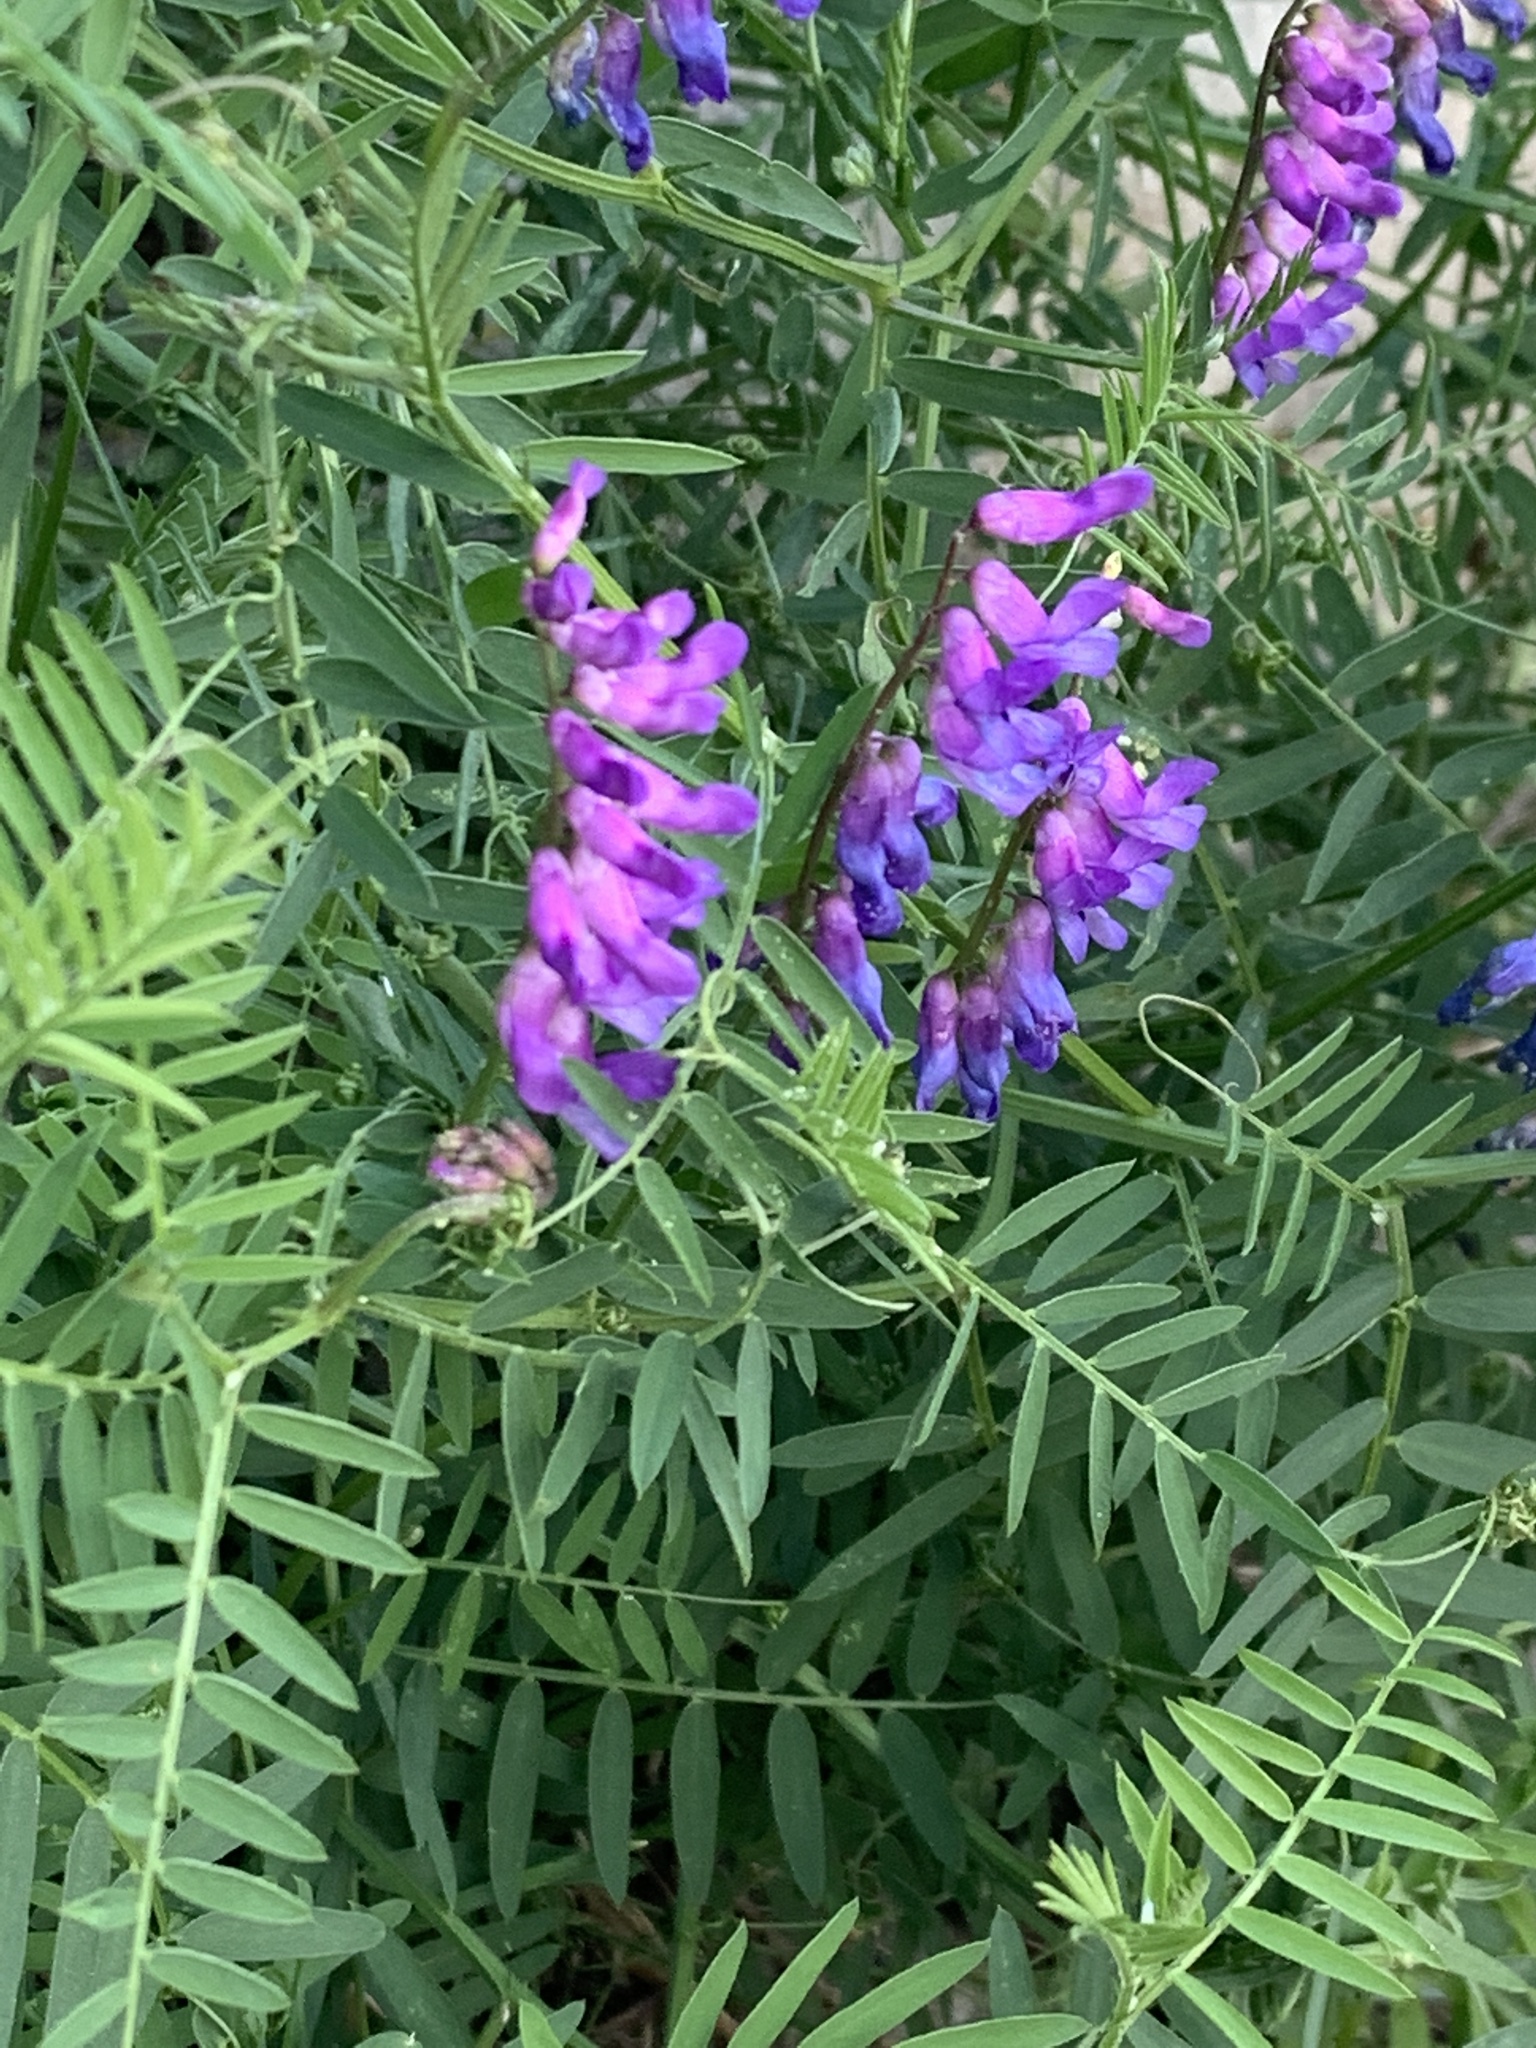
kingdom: Plantae
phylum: Tracheophyta
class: Magnoliopsida
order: Fabales
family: Fabaceae
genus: Vicia
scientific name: Vicia cracca
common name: Bird vetch
